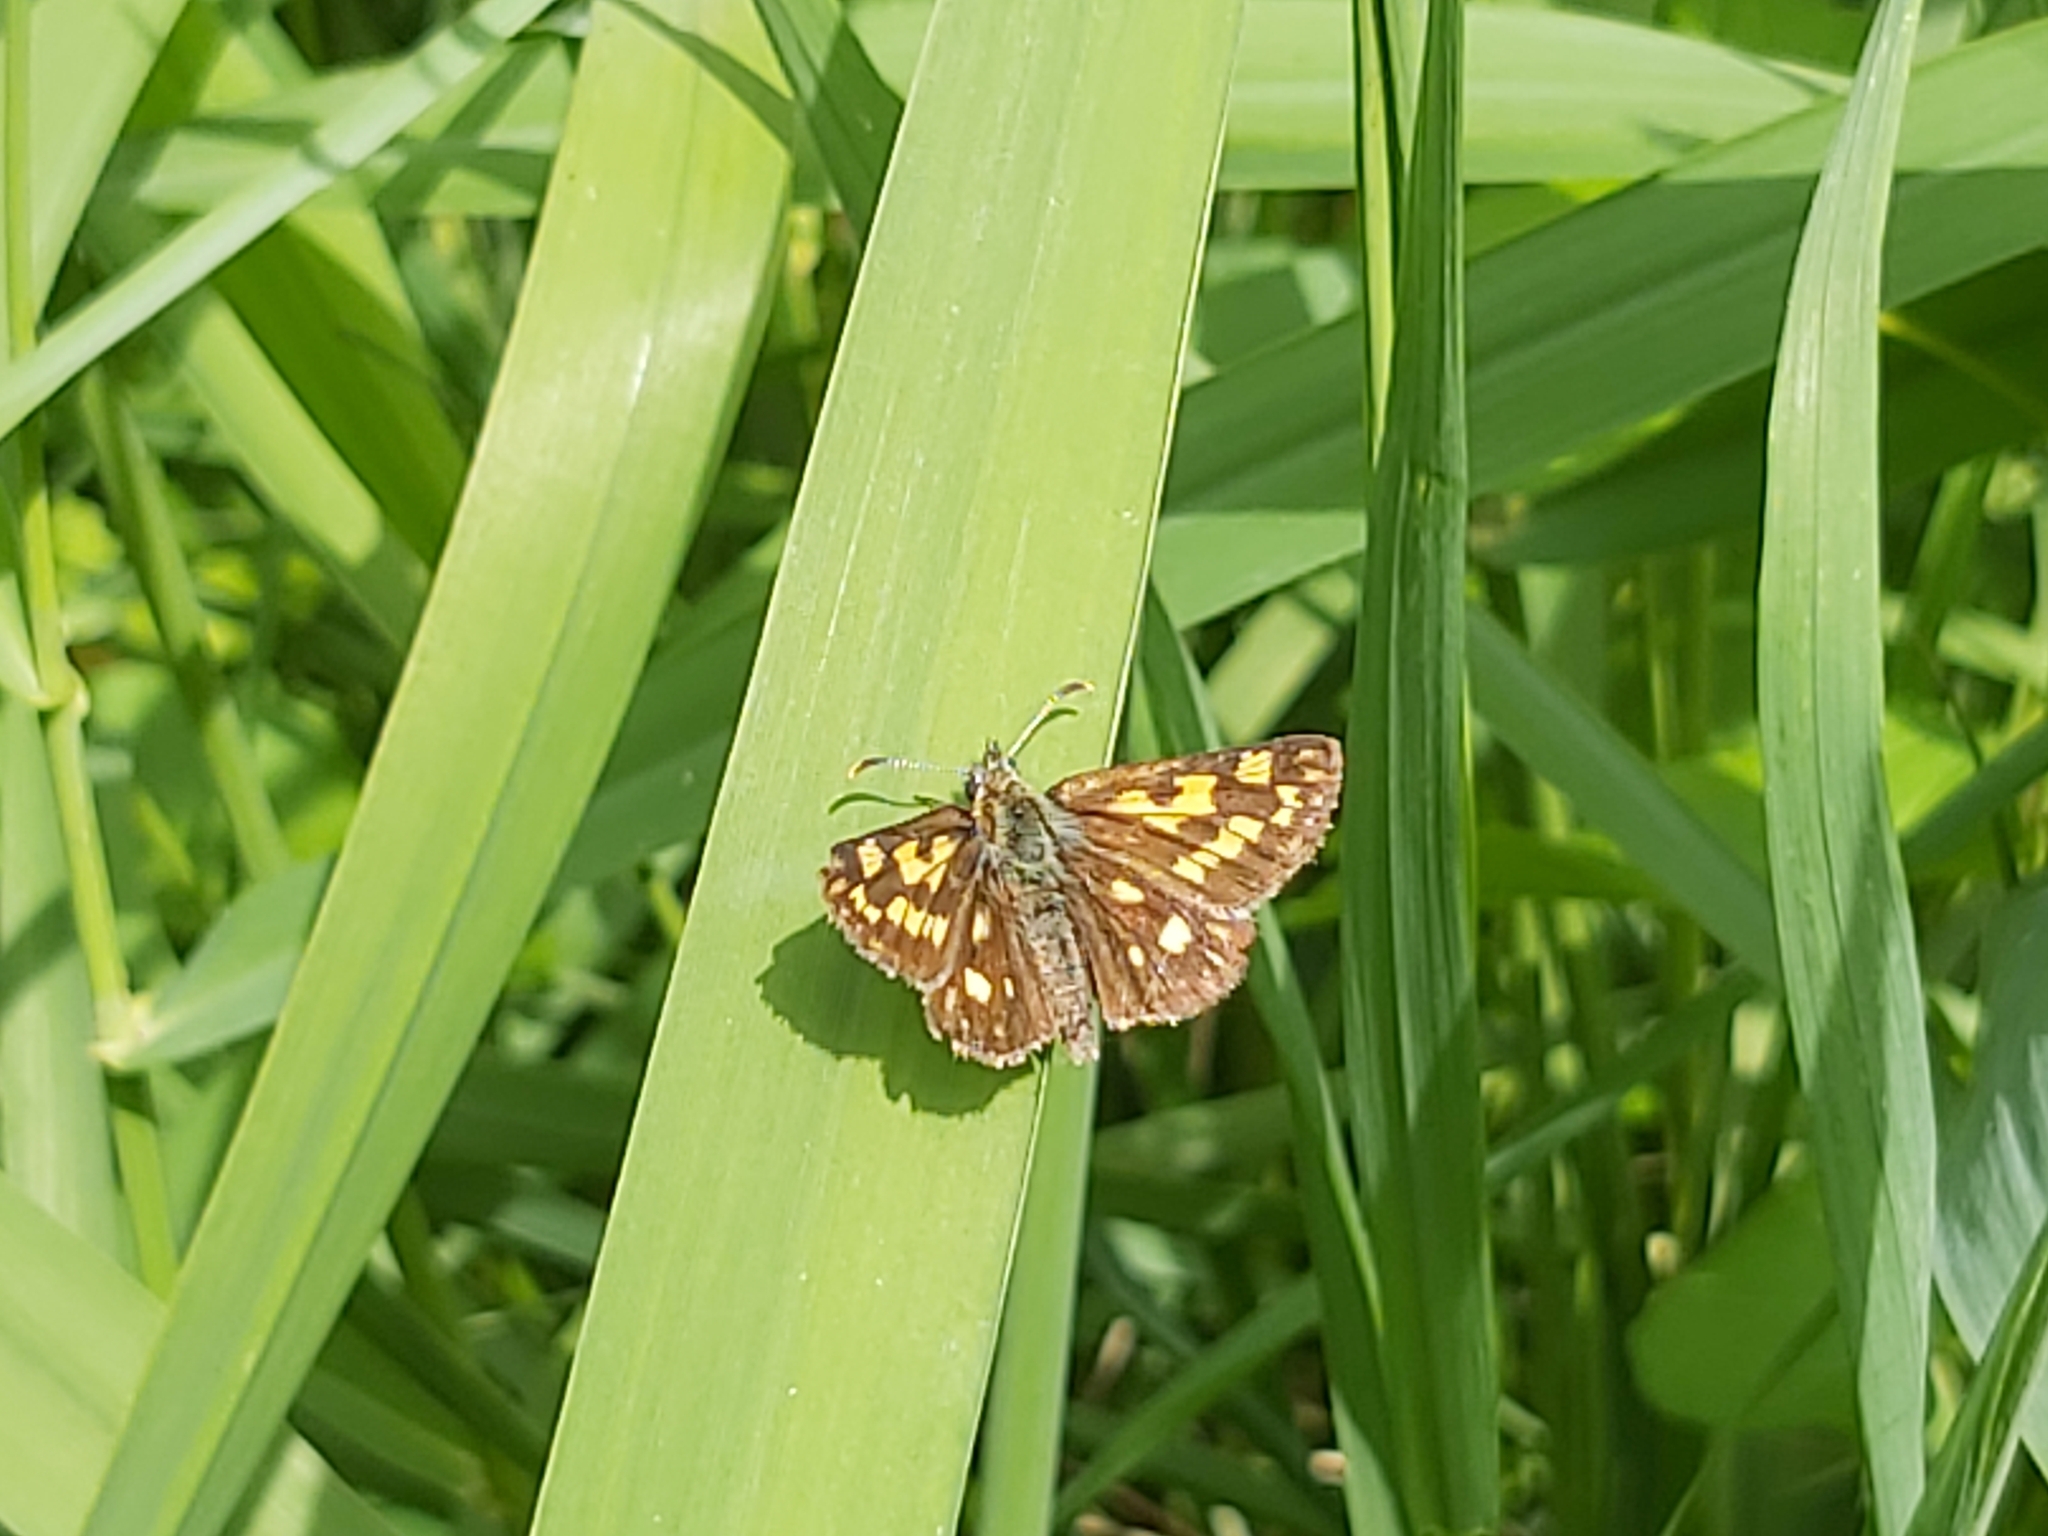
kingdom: Animalia
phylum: Arthropoda
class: Insecta
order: Lepidoptera
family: Hesperiidae
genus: Carterocephalus
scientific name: Carterocephalus palaemon
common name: Chequered skipper
